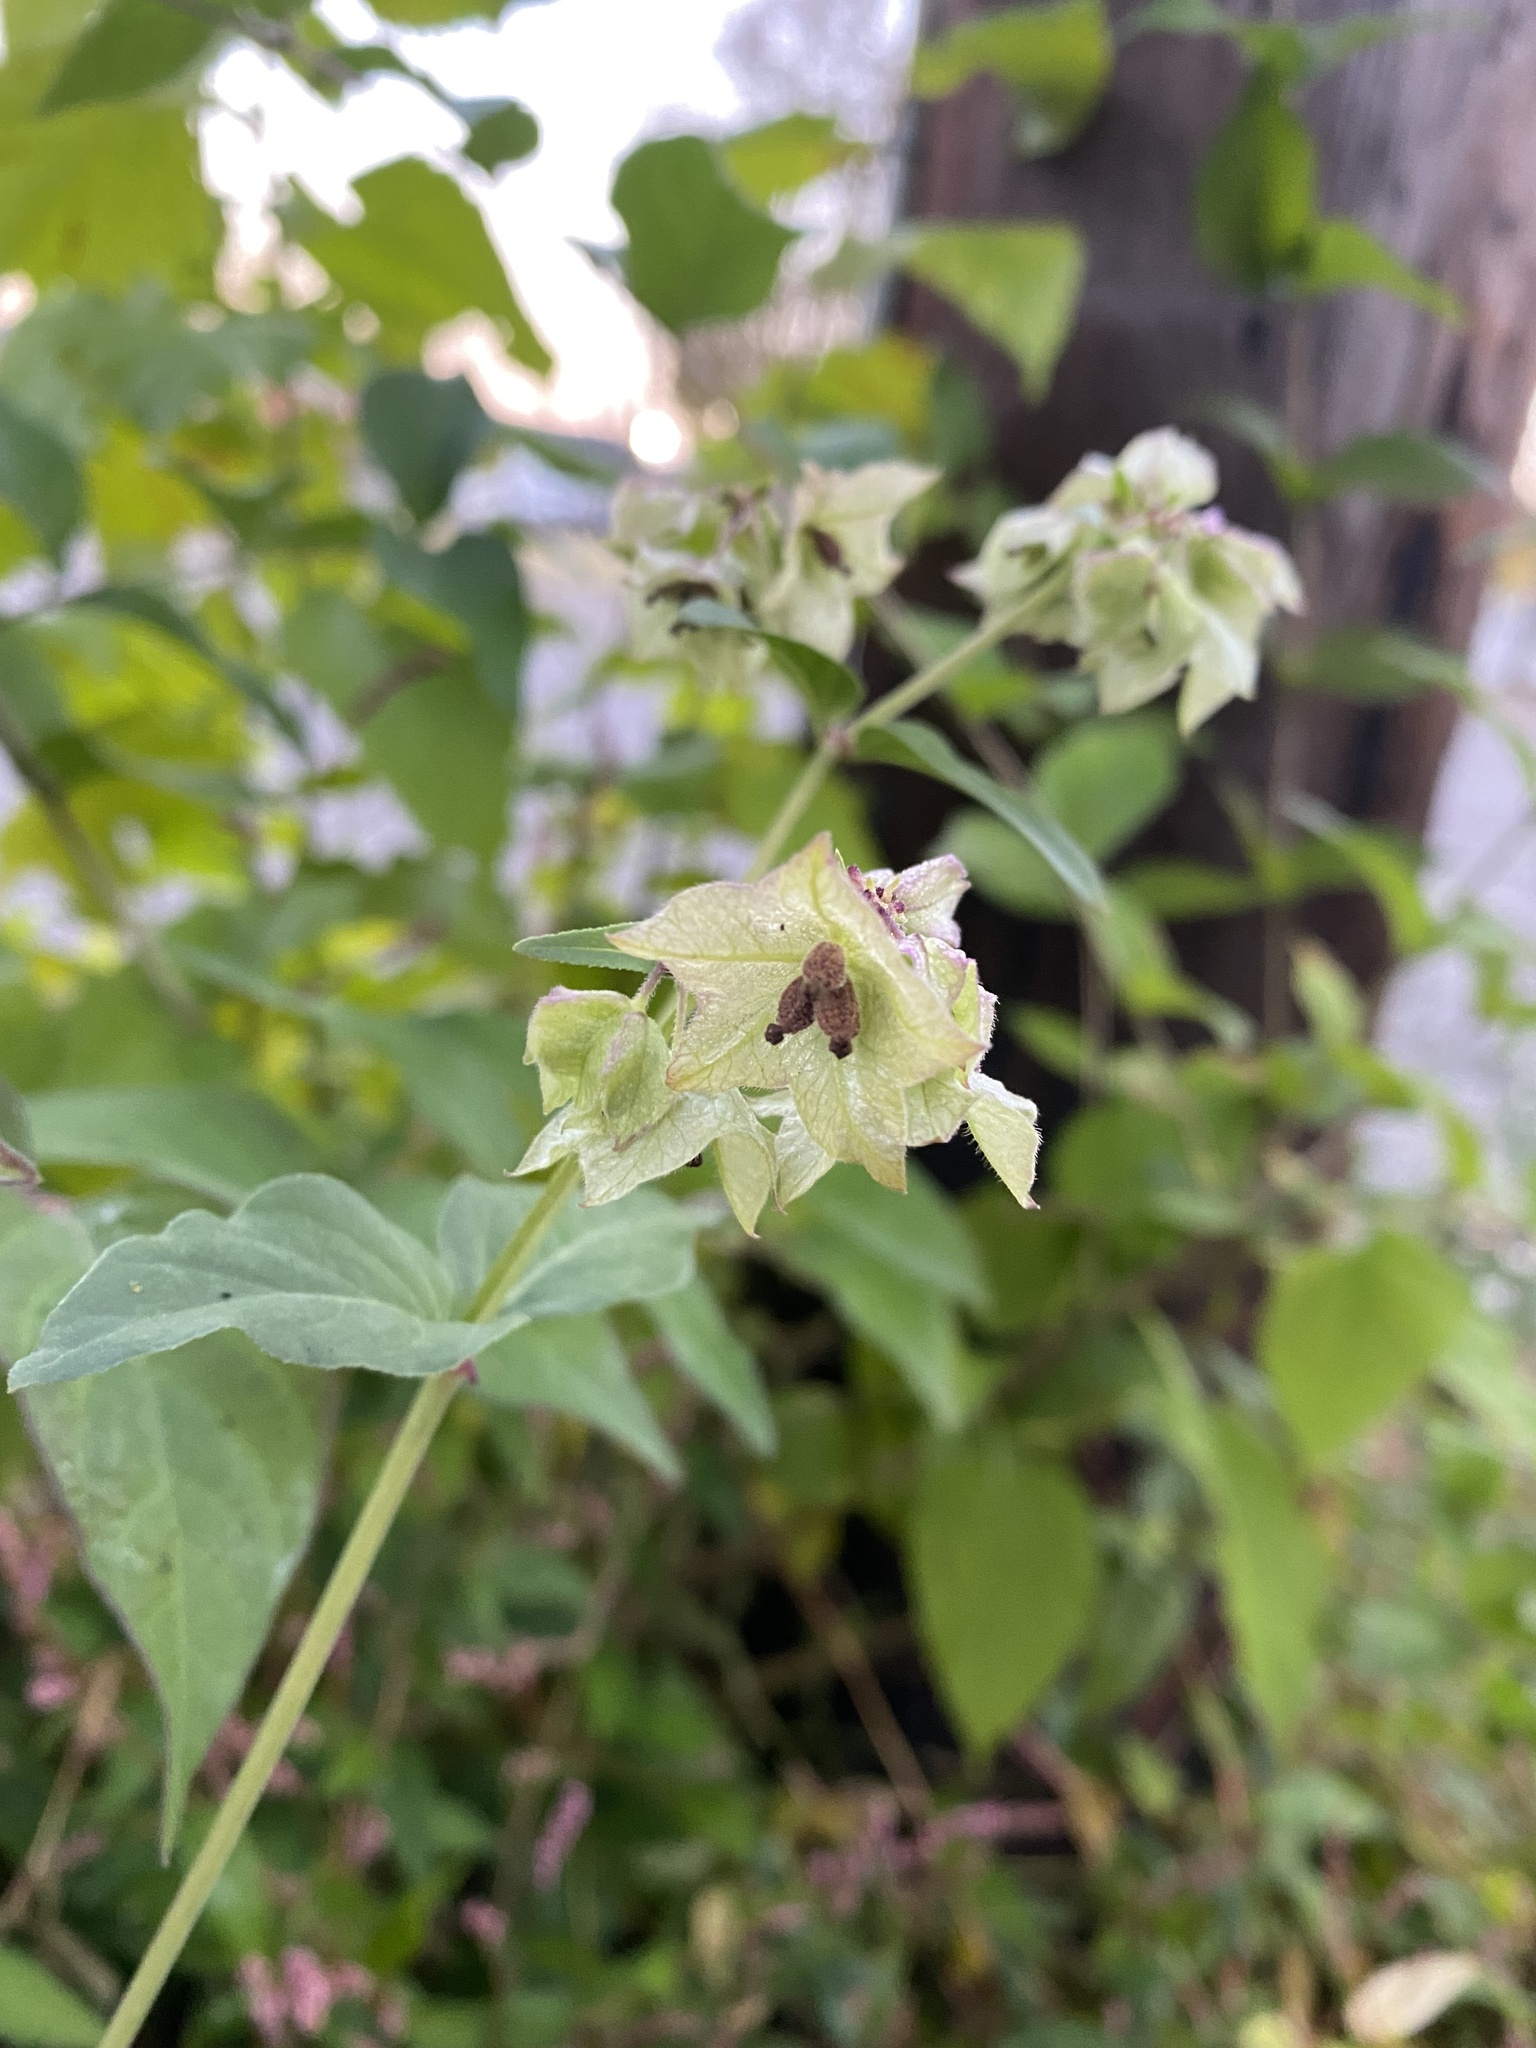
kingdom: Plantae
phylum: Tracheophyta
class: Magnoliopsida
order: Caryophyllales
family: Nyctaginaceae
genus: Mirabilis
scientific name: Mirabilis nyctaginea
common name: Umbrella wort
